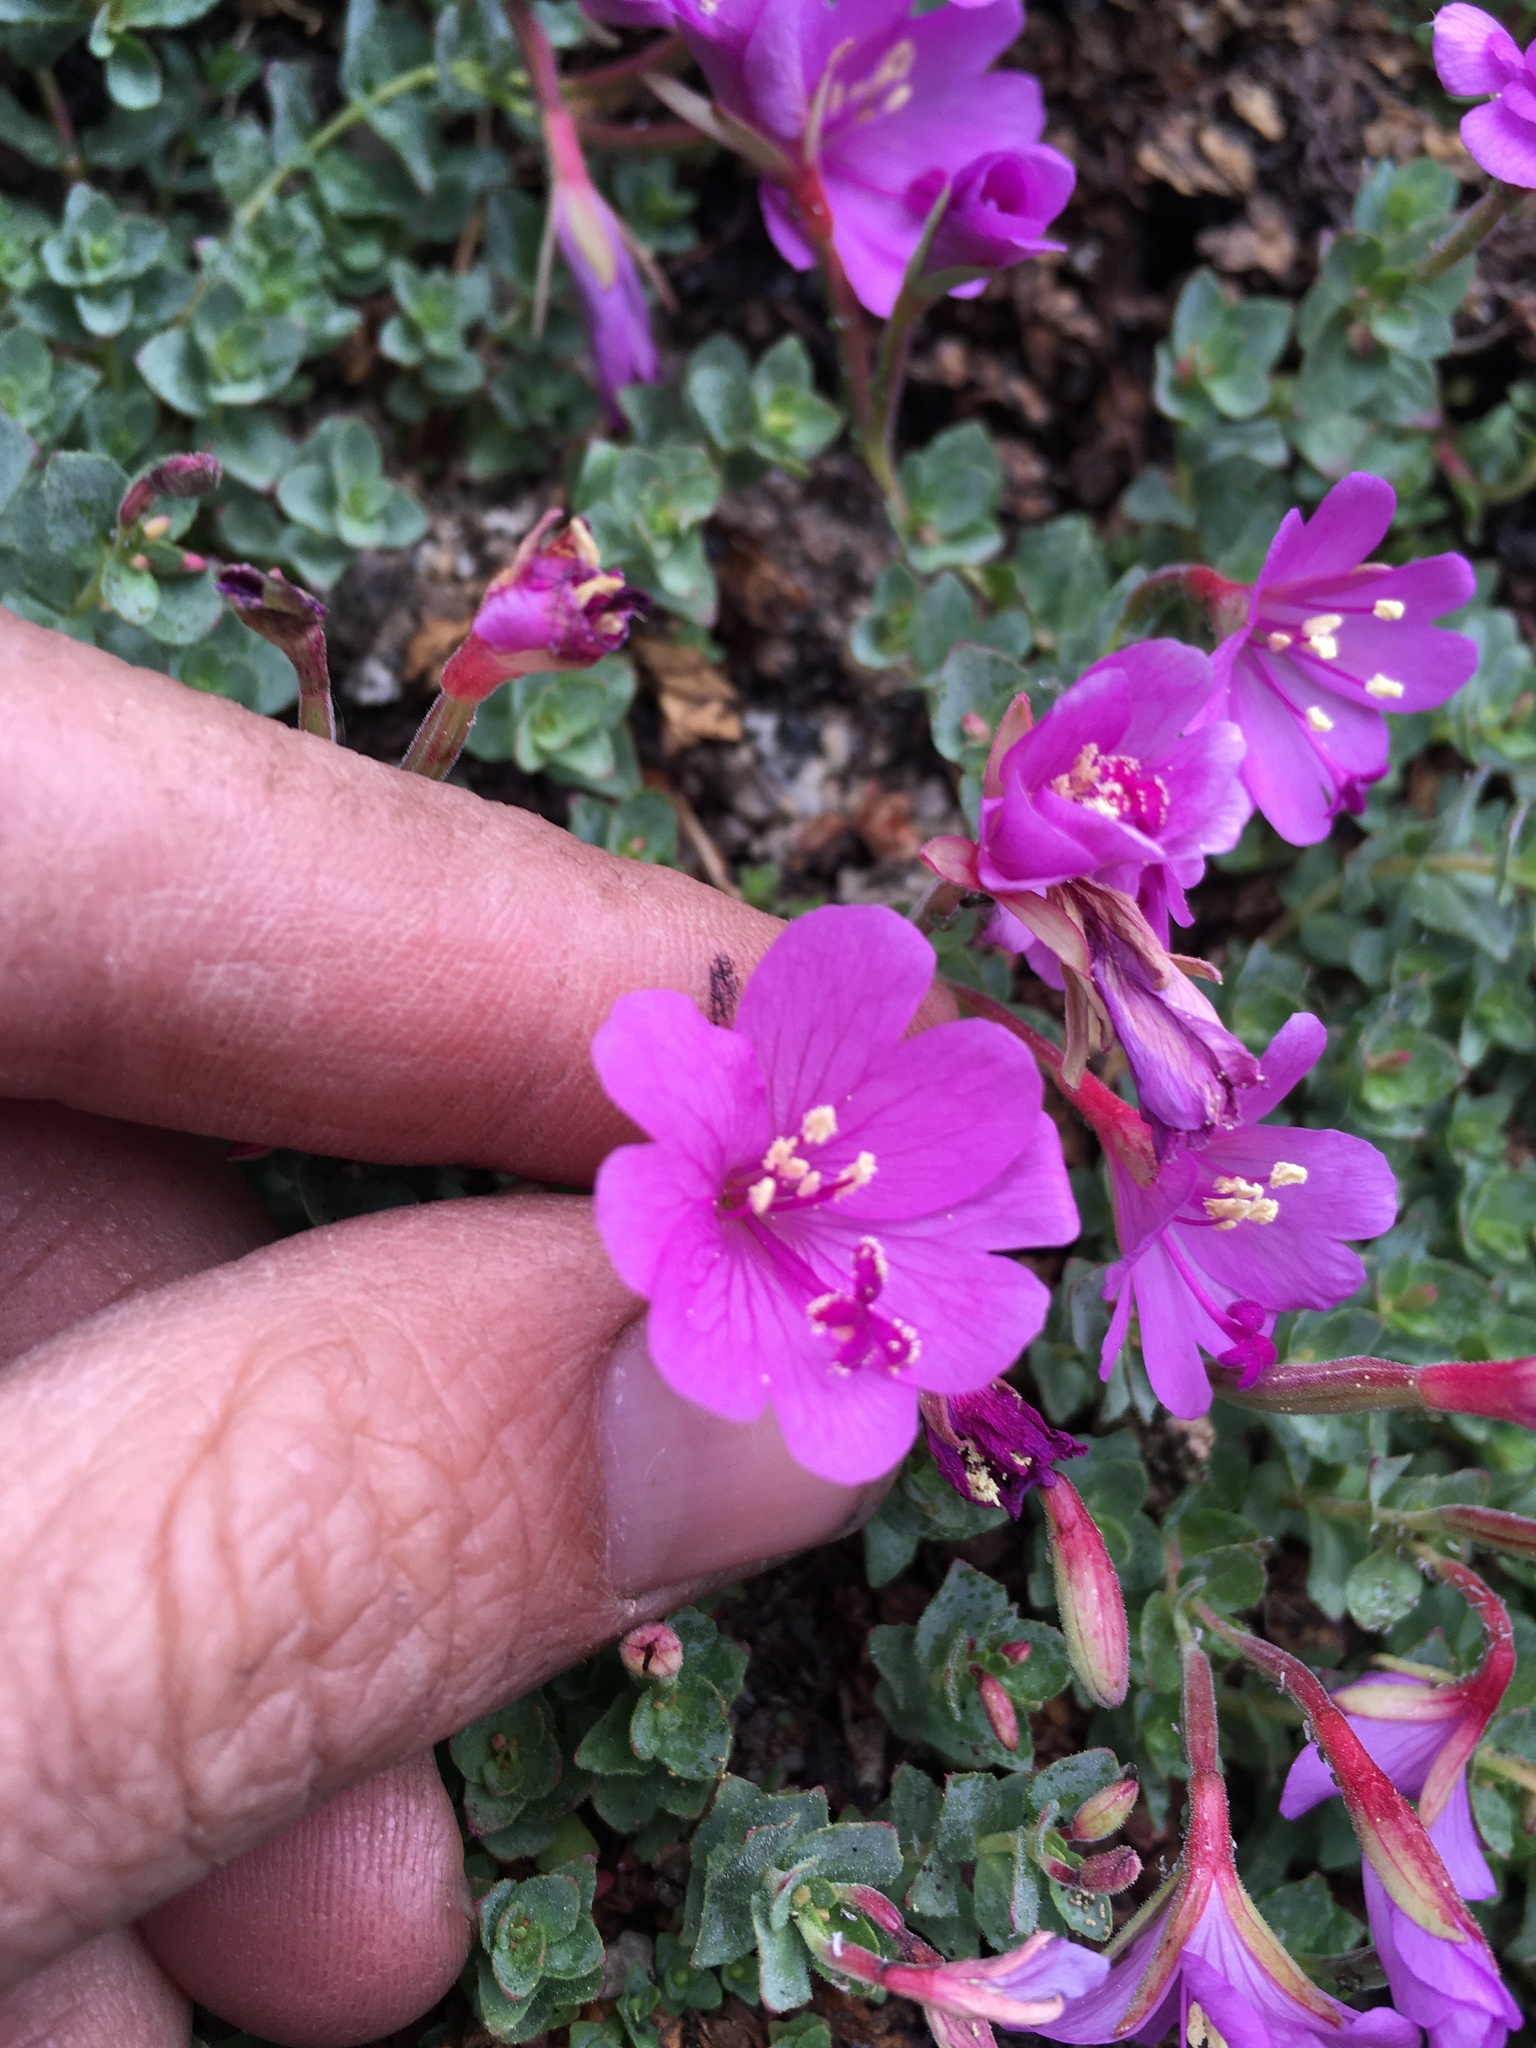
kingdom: Plantae
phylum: Tracheophyta
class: Magnoliopsida
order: Myrtales
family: Onagraceae
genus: Epilobium
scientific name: Epilobium obcordatum
